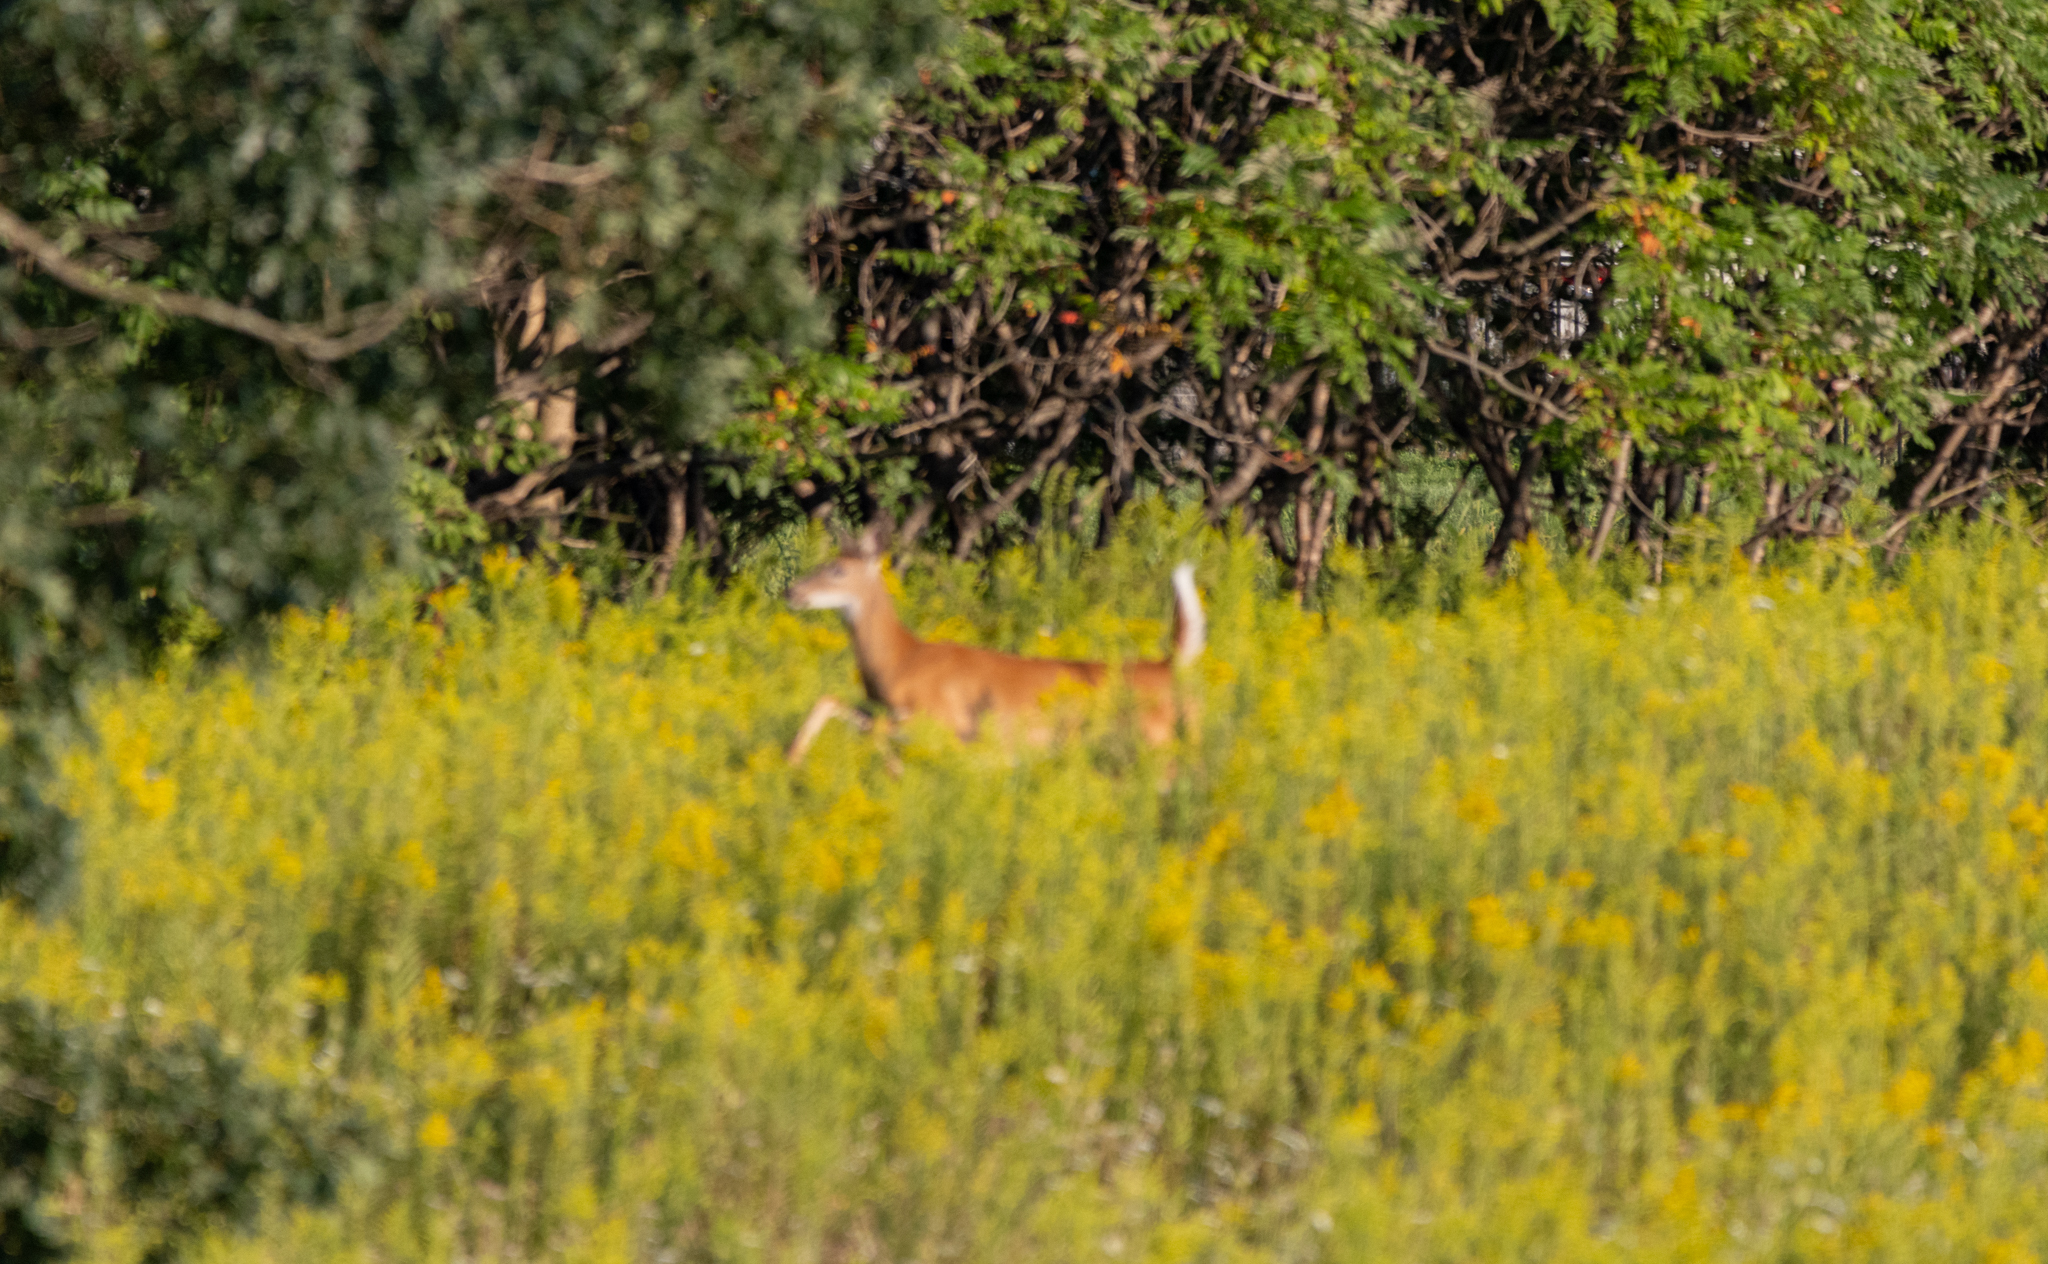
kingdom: Animalia
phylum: Chordata
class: Mammalia
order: Artiodactyla
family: Cervidae
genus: Odocoileus
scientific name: Odocoileus virginianus
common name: White-tailed deer
